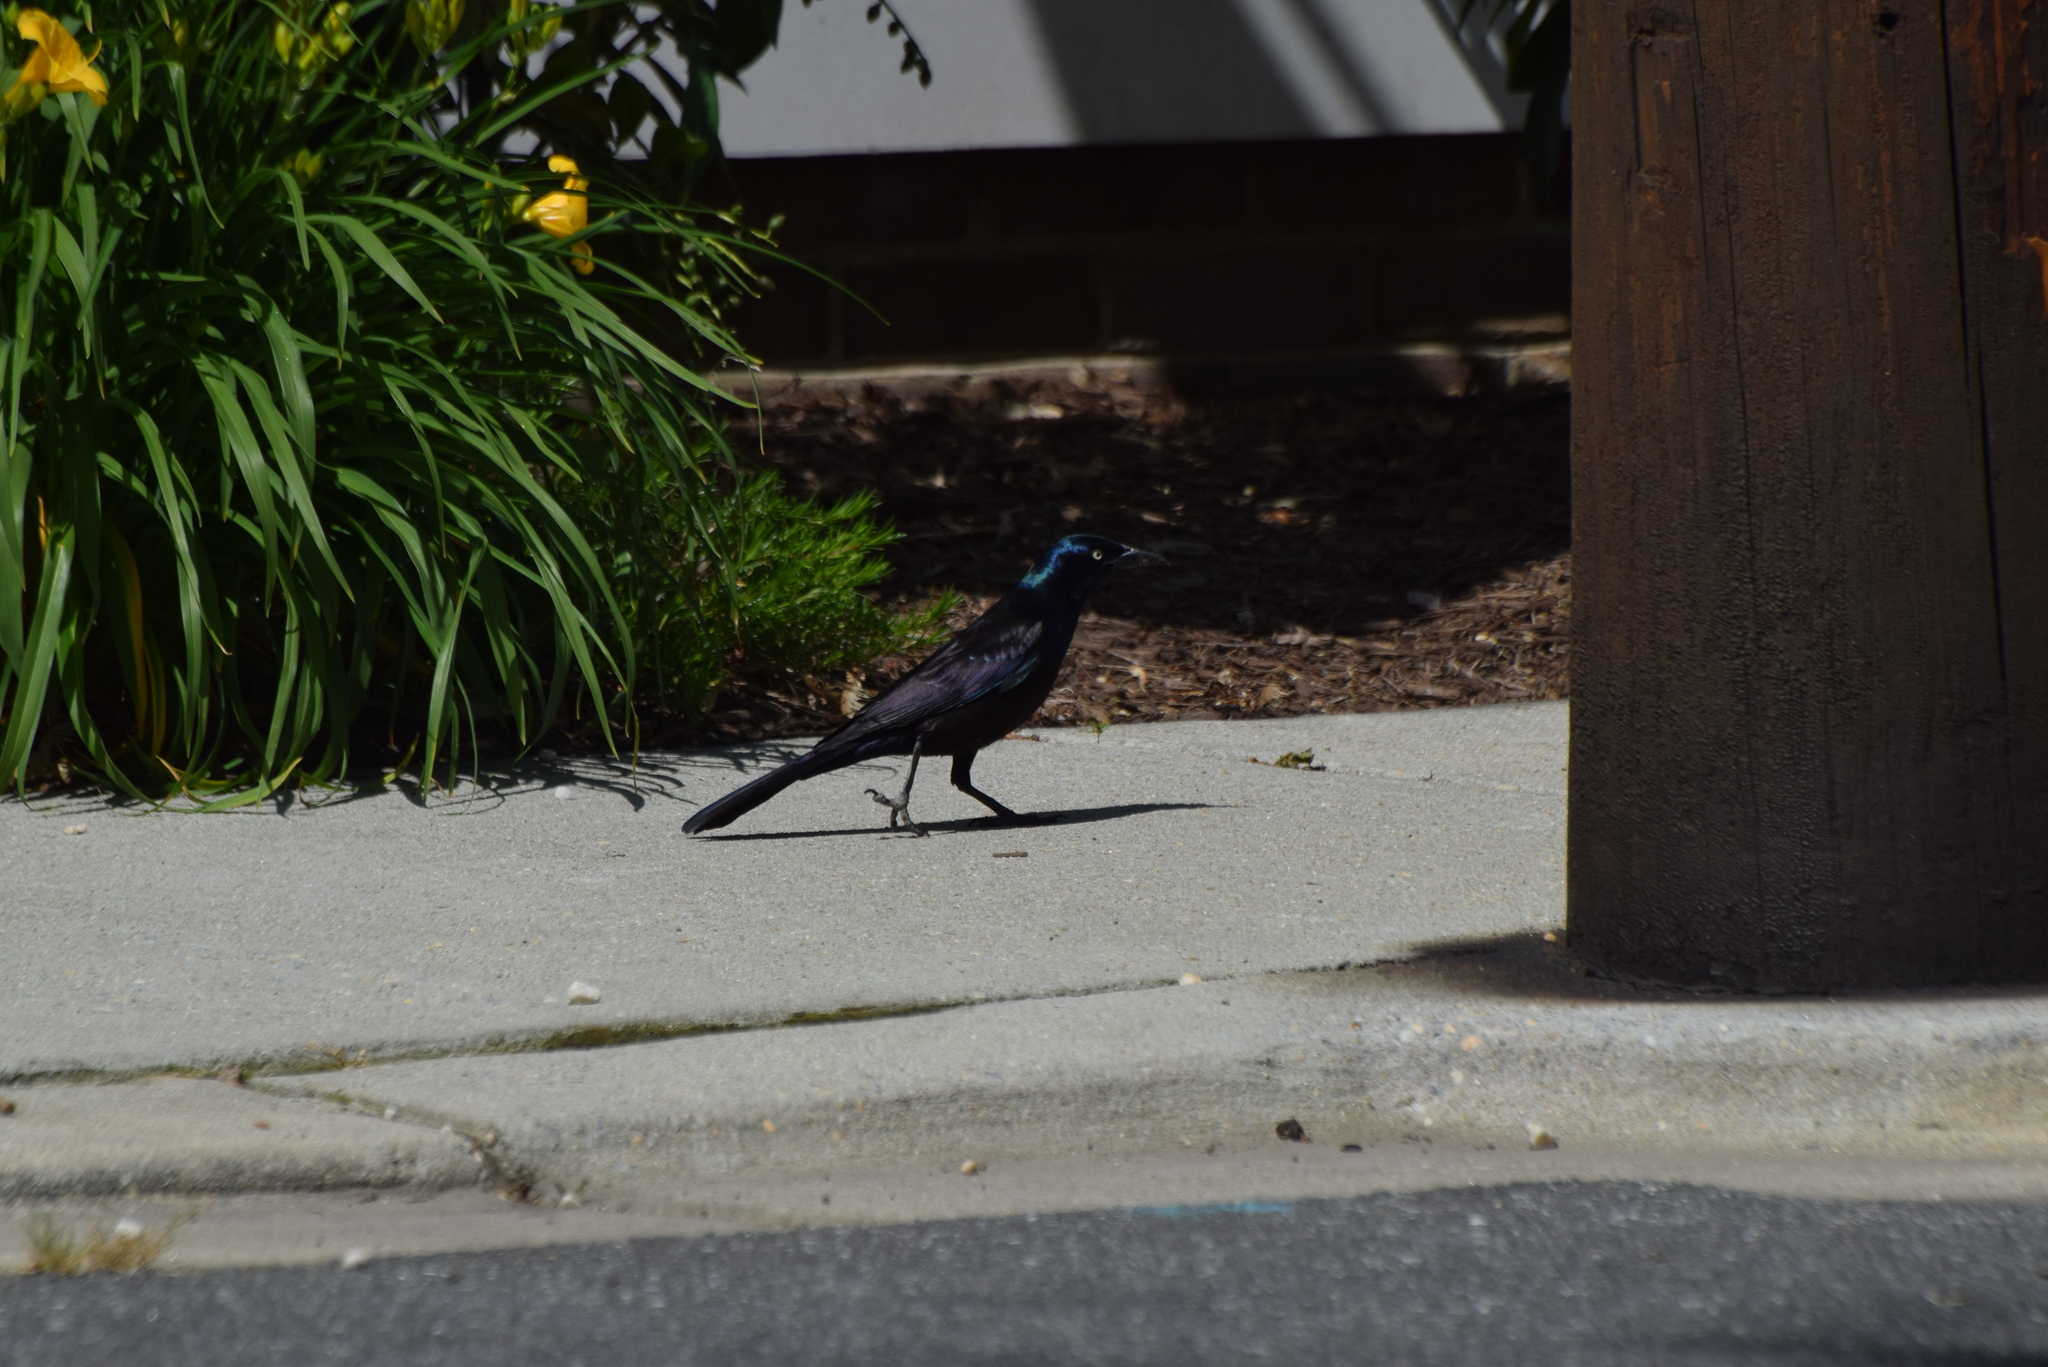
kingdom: Animalia
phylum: Chordata
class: Aves
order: Passeriformes
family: Icteridae
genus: Quiscalus
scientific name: Quiscalus quiscula
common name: Common grackle
